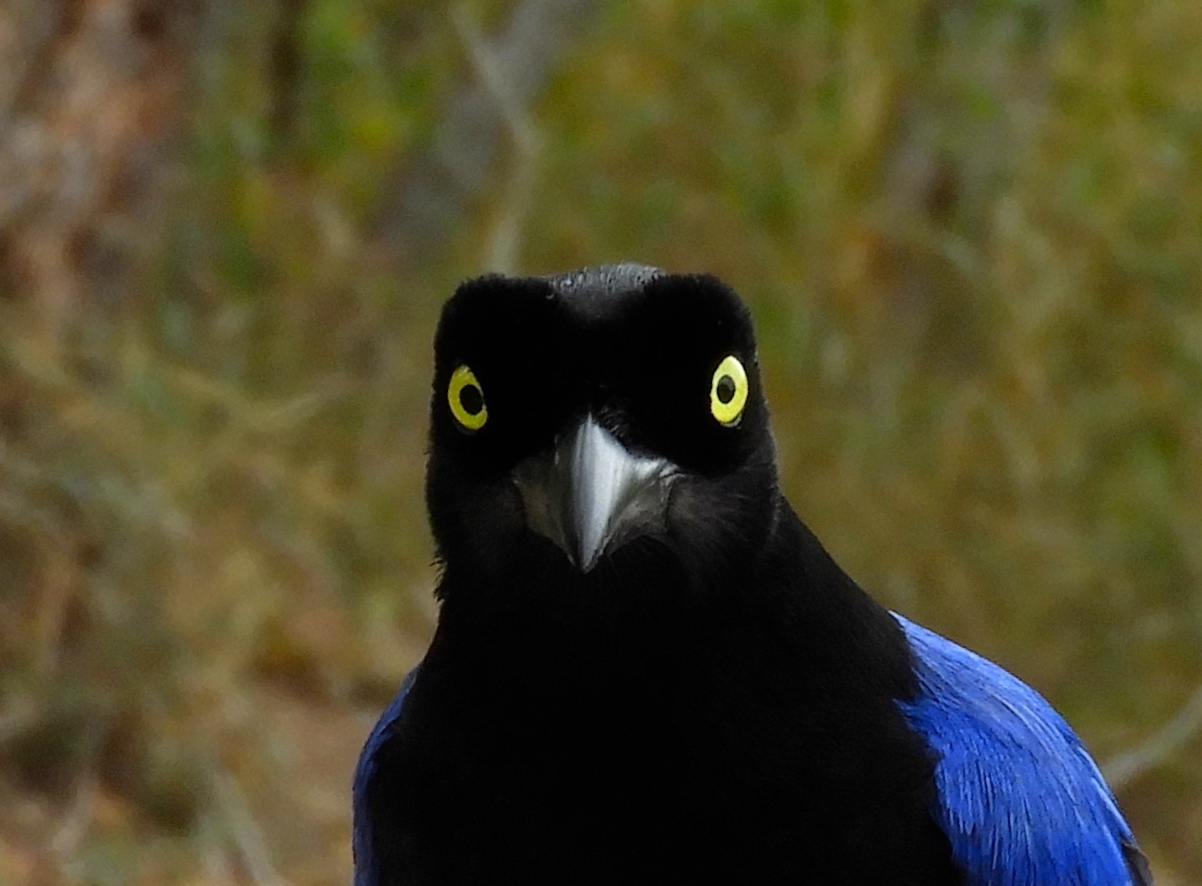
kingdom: Animalia
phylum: Chordata
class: Aves
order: Passeriformes
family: Corvidae
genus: Cyanocorax
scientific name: Cyanocorax beecheii
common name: Purplish-backed jay
